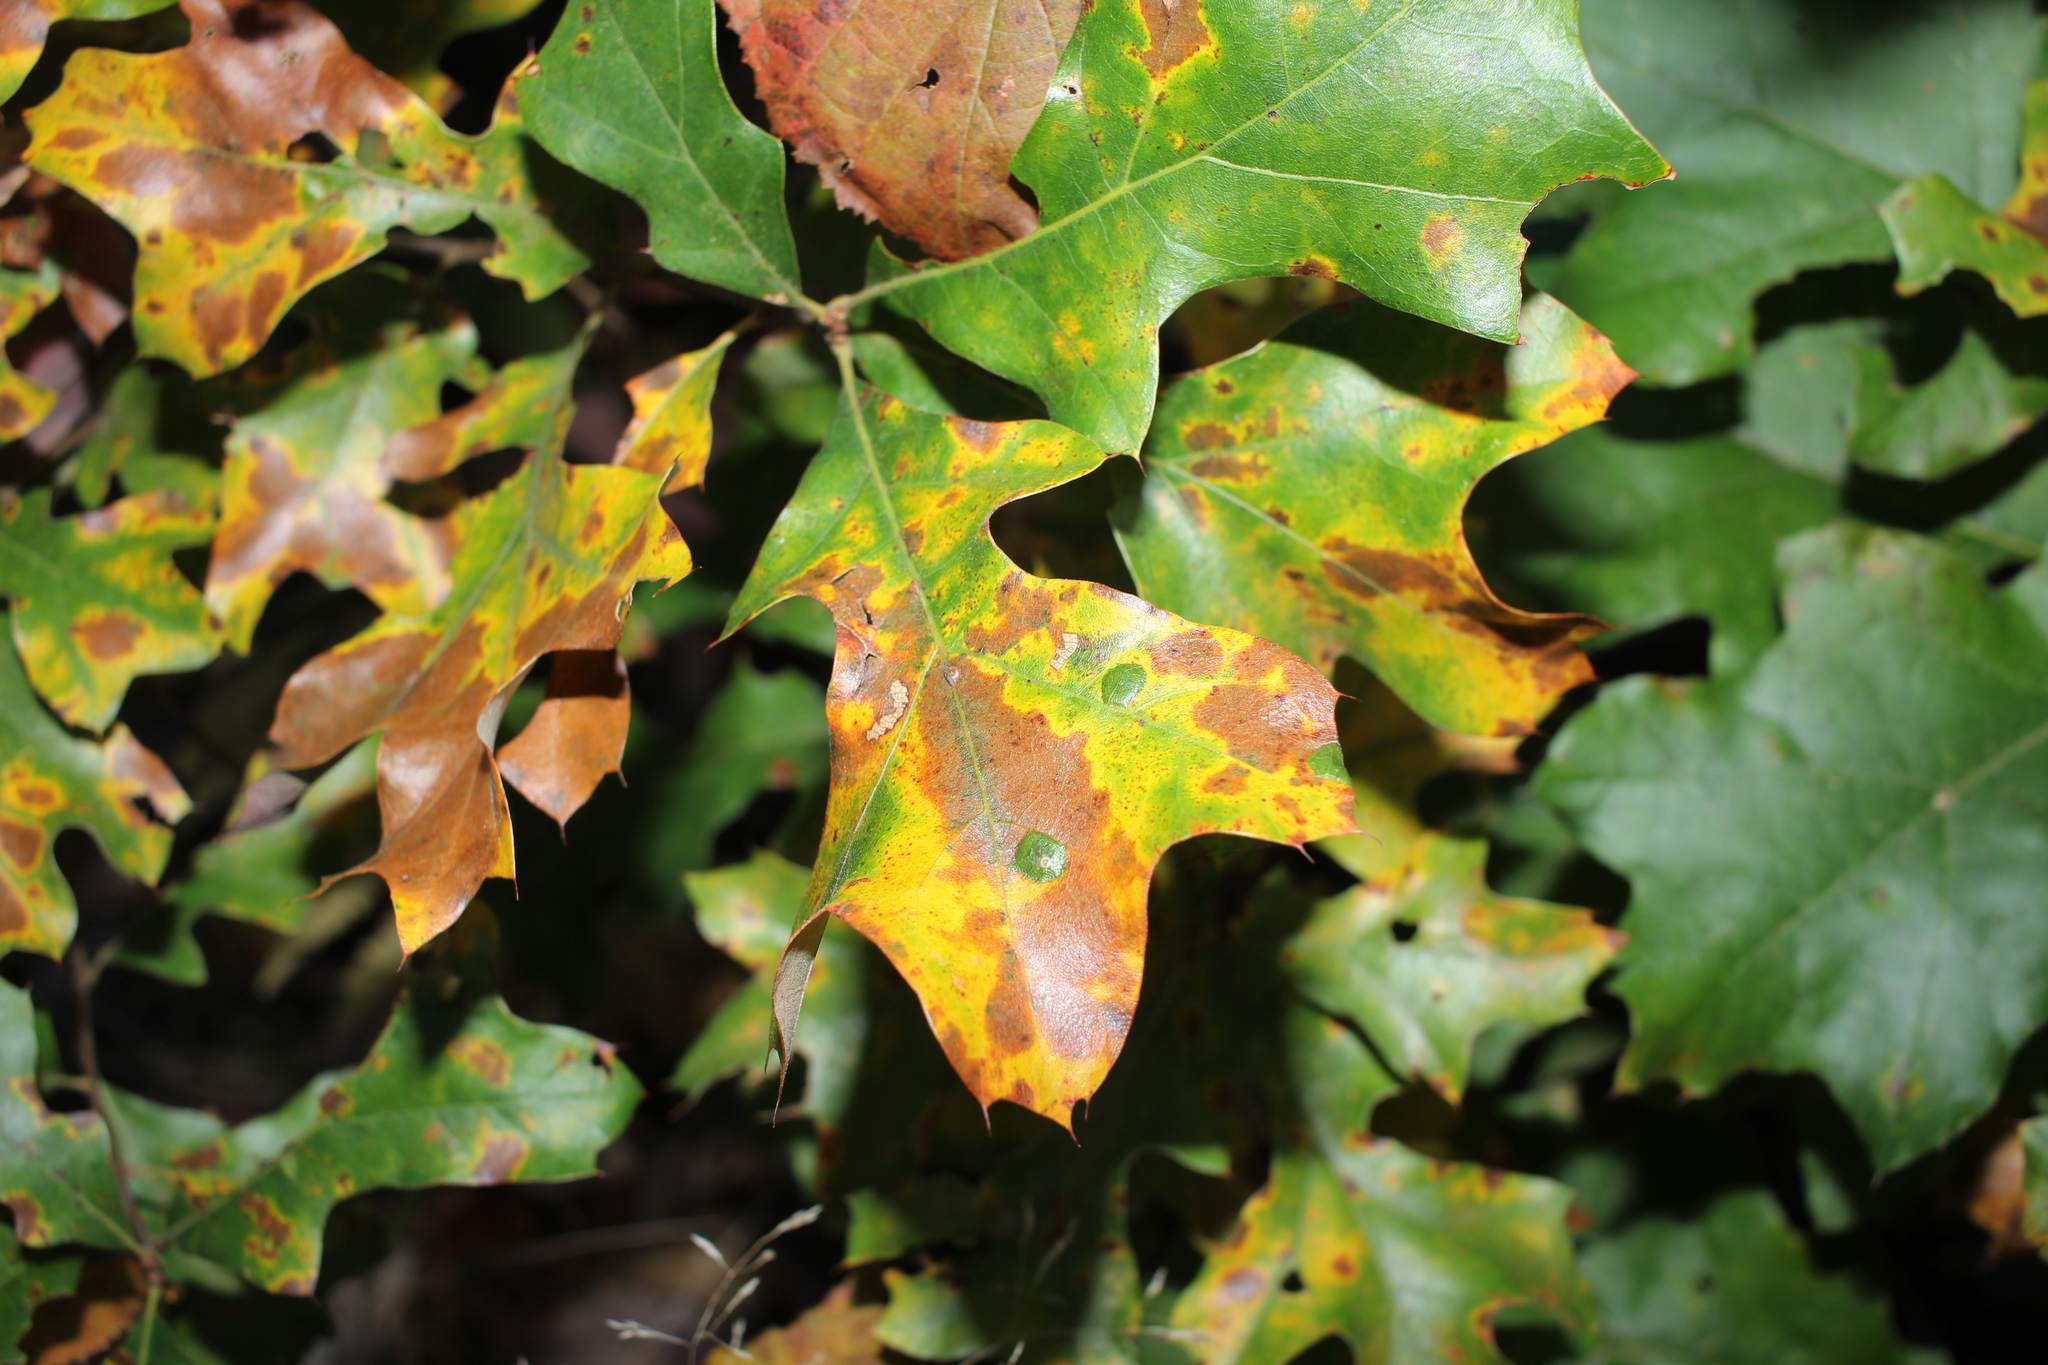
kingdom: Plantae
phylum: Tracheophyta
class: Magnoliopsida
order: Fagales
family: Fagaceae
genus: Quercus
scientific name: Quercus ilicifolia
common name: Bear oak
